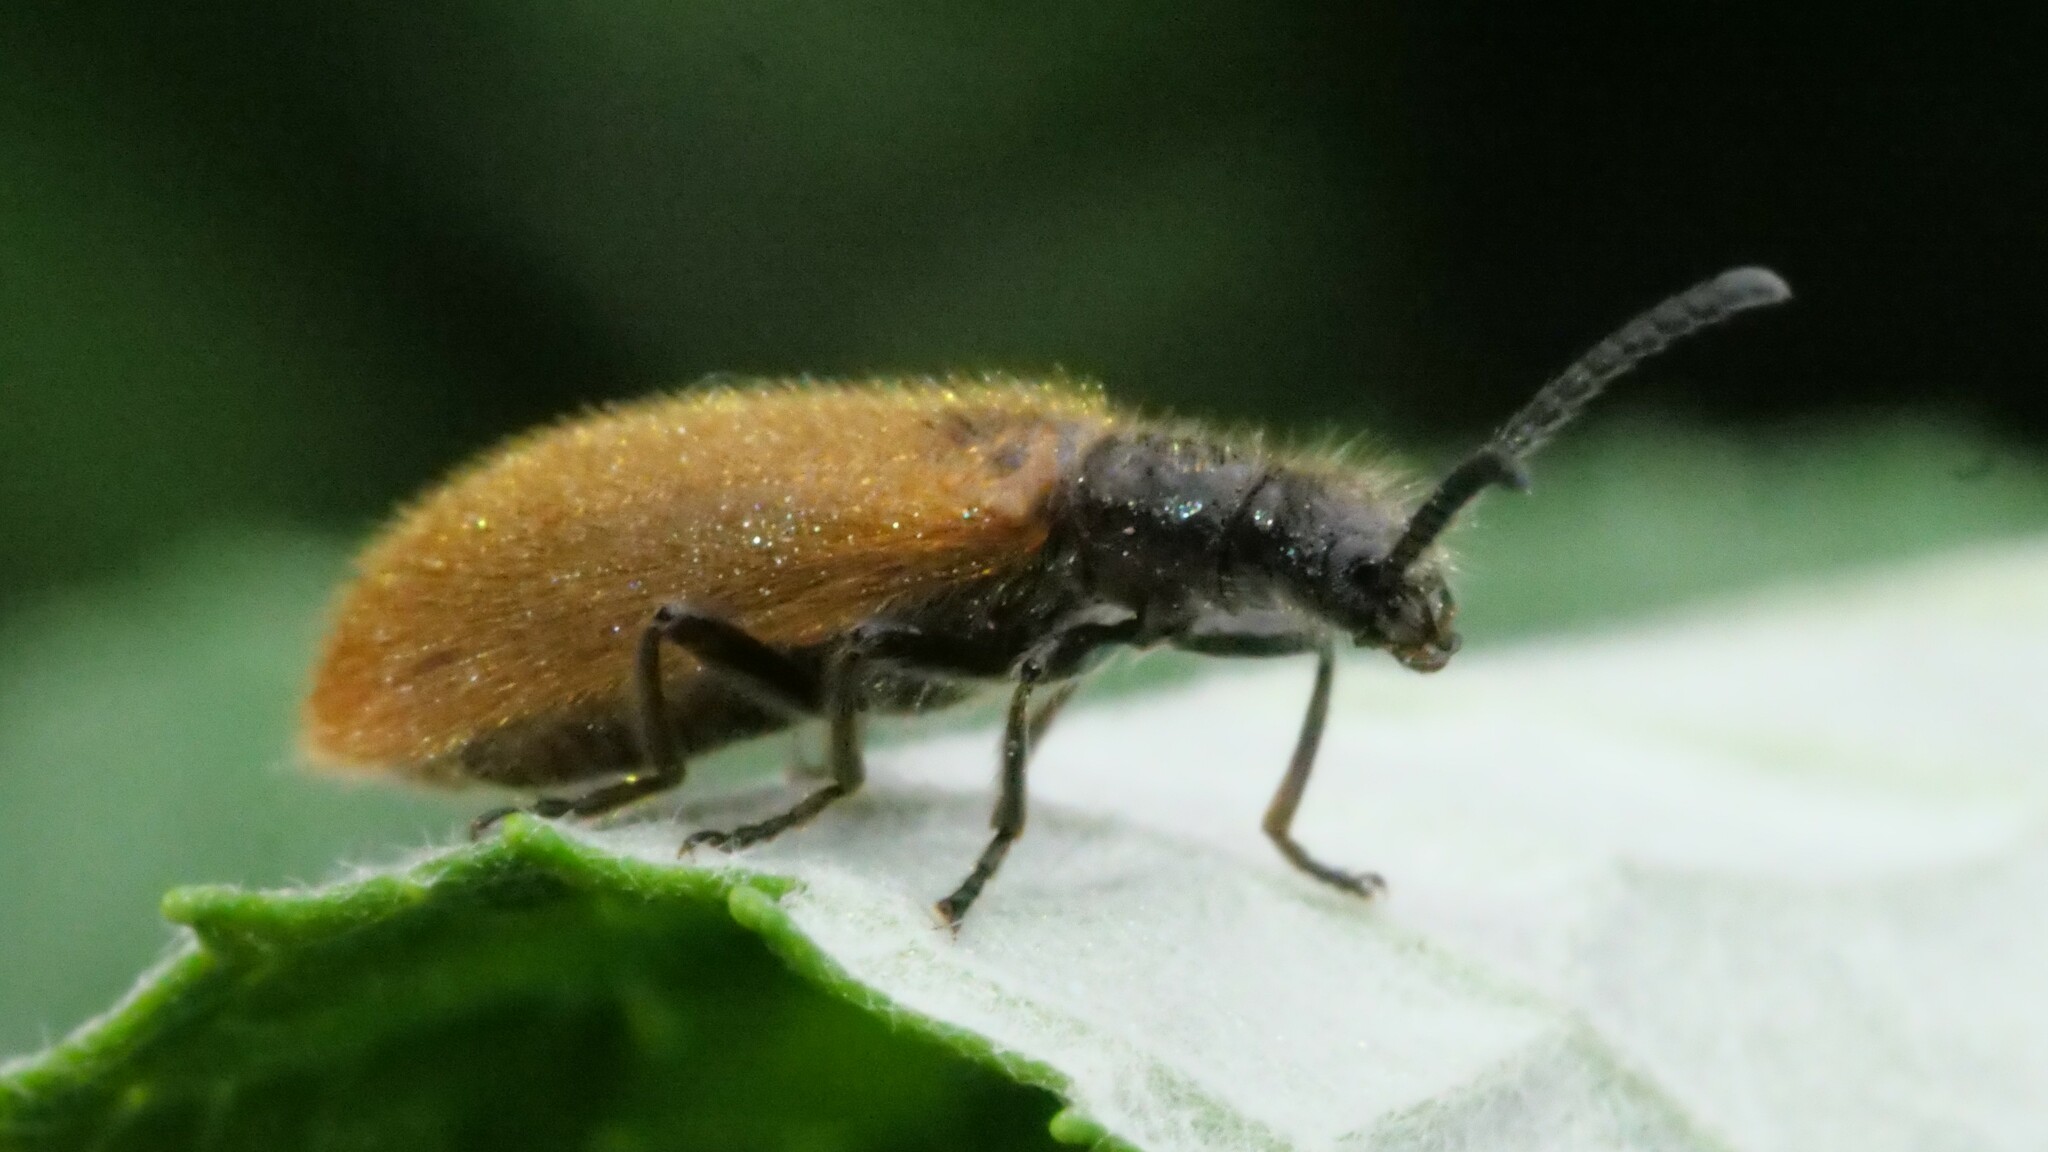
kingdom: Animalia
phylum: Arthropoda
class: Insecta
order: Coleoptera
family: Tenebrionidae
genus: Lagria
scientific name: Lagria hirta
